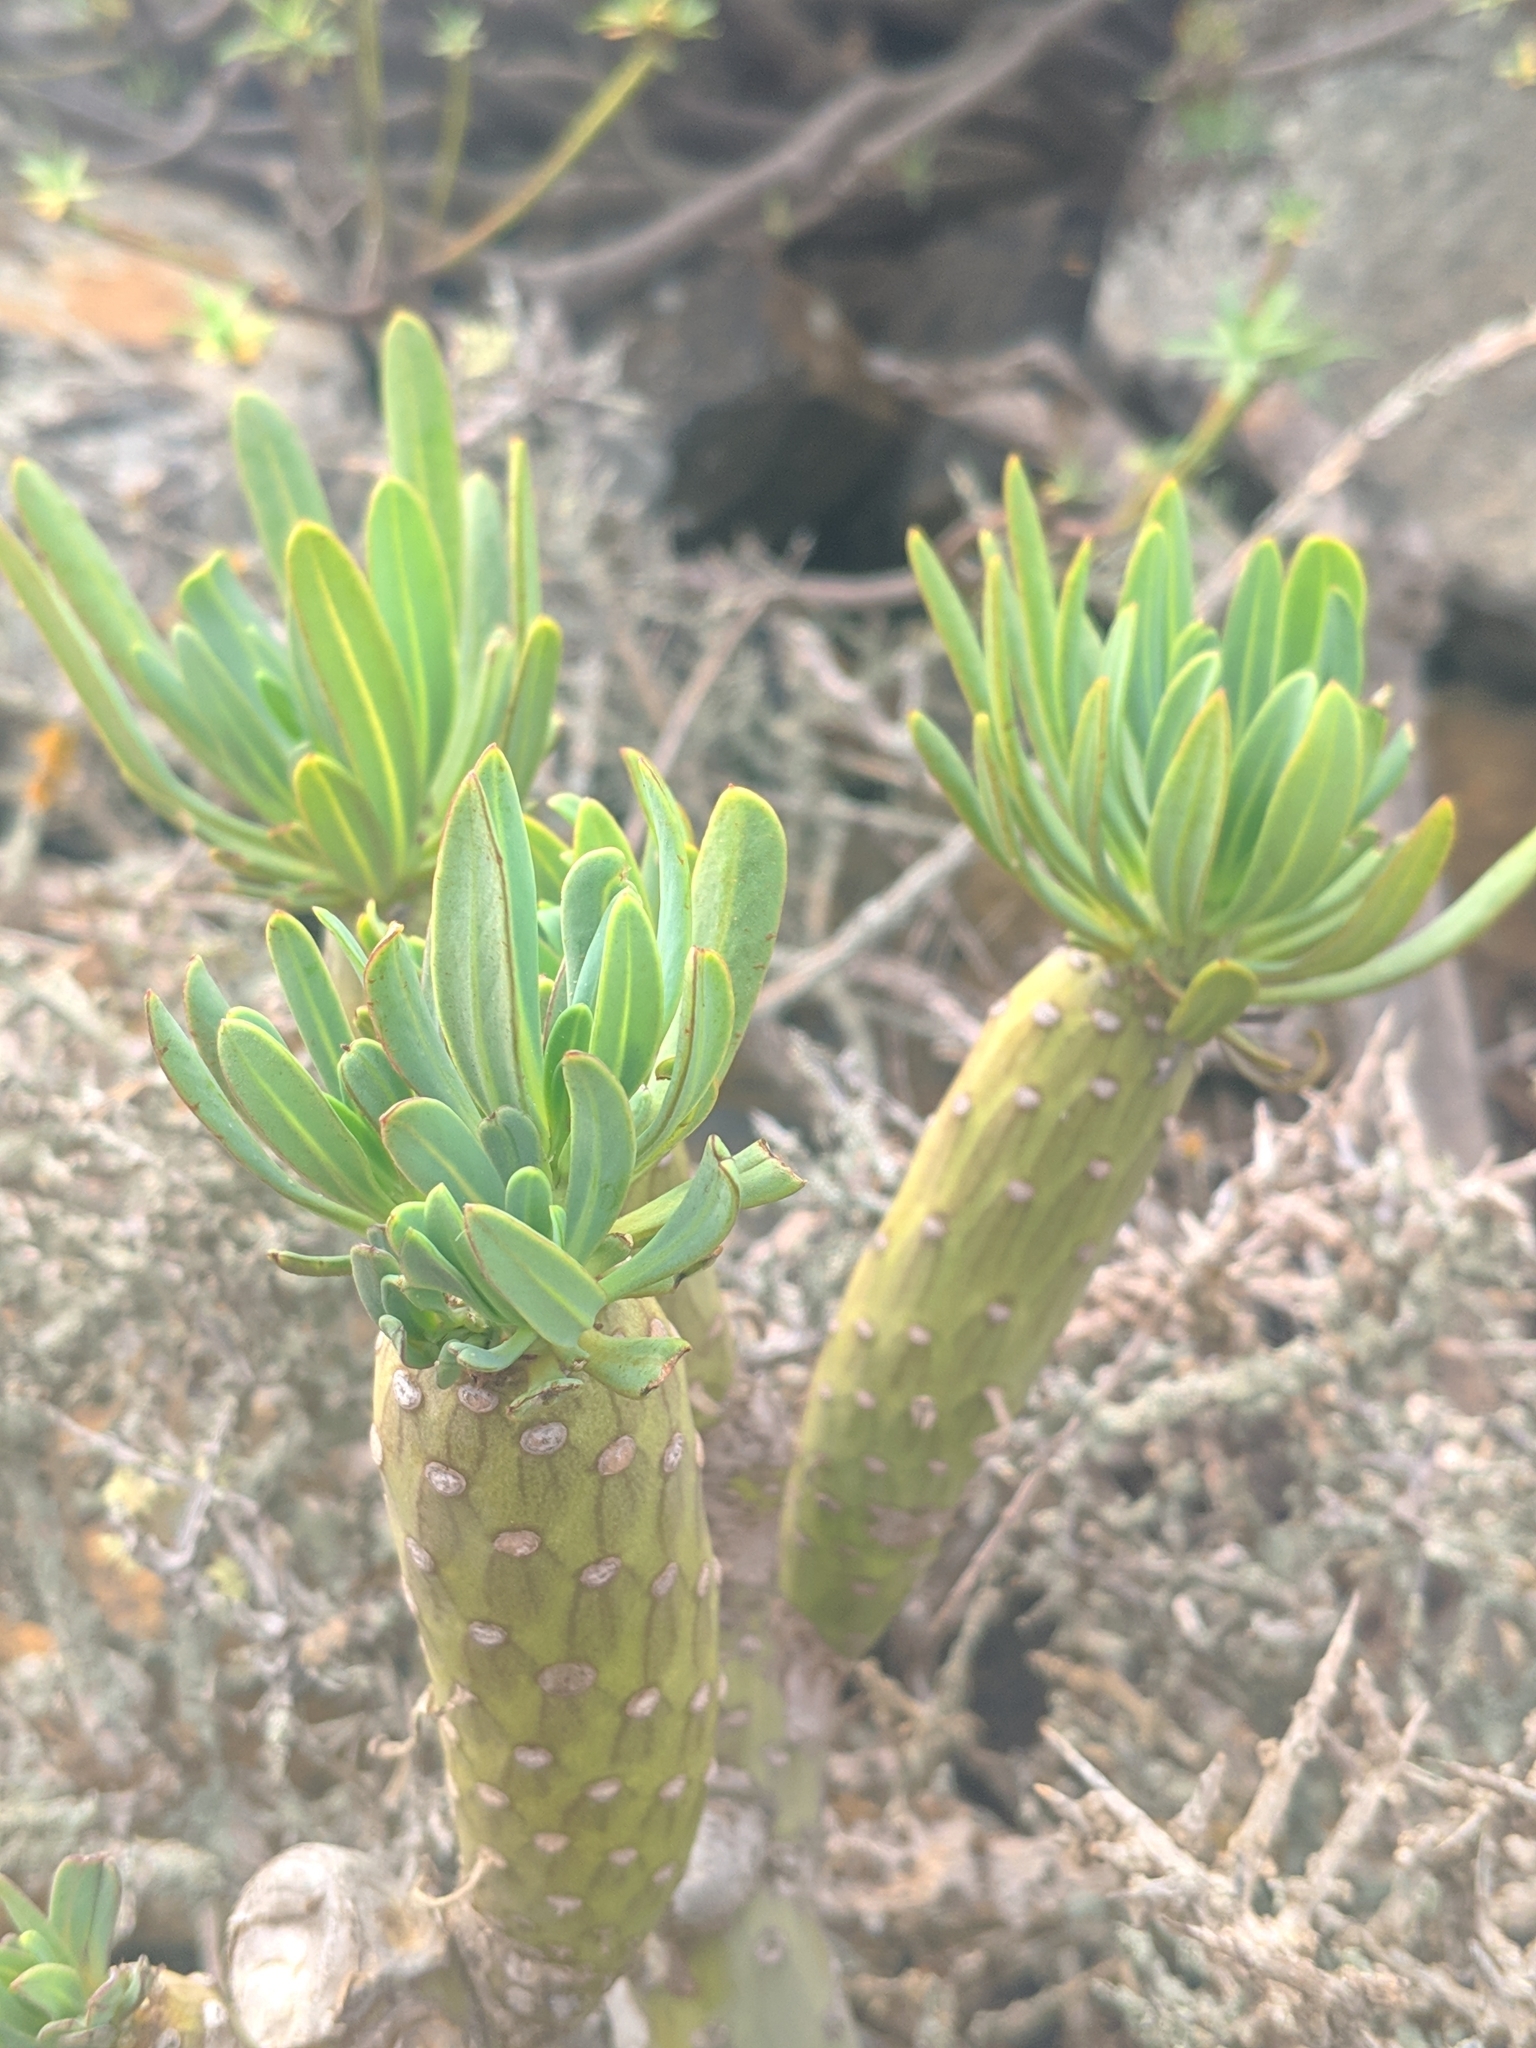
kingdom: Plantae
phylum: Tracheophyta
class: Magnoliopsida
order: Asterales
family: Asteraceae
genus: Kleinia
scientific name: Kleinia neriifolia
